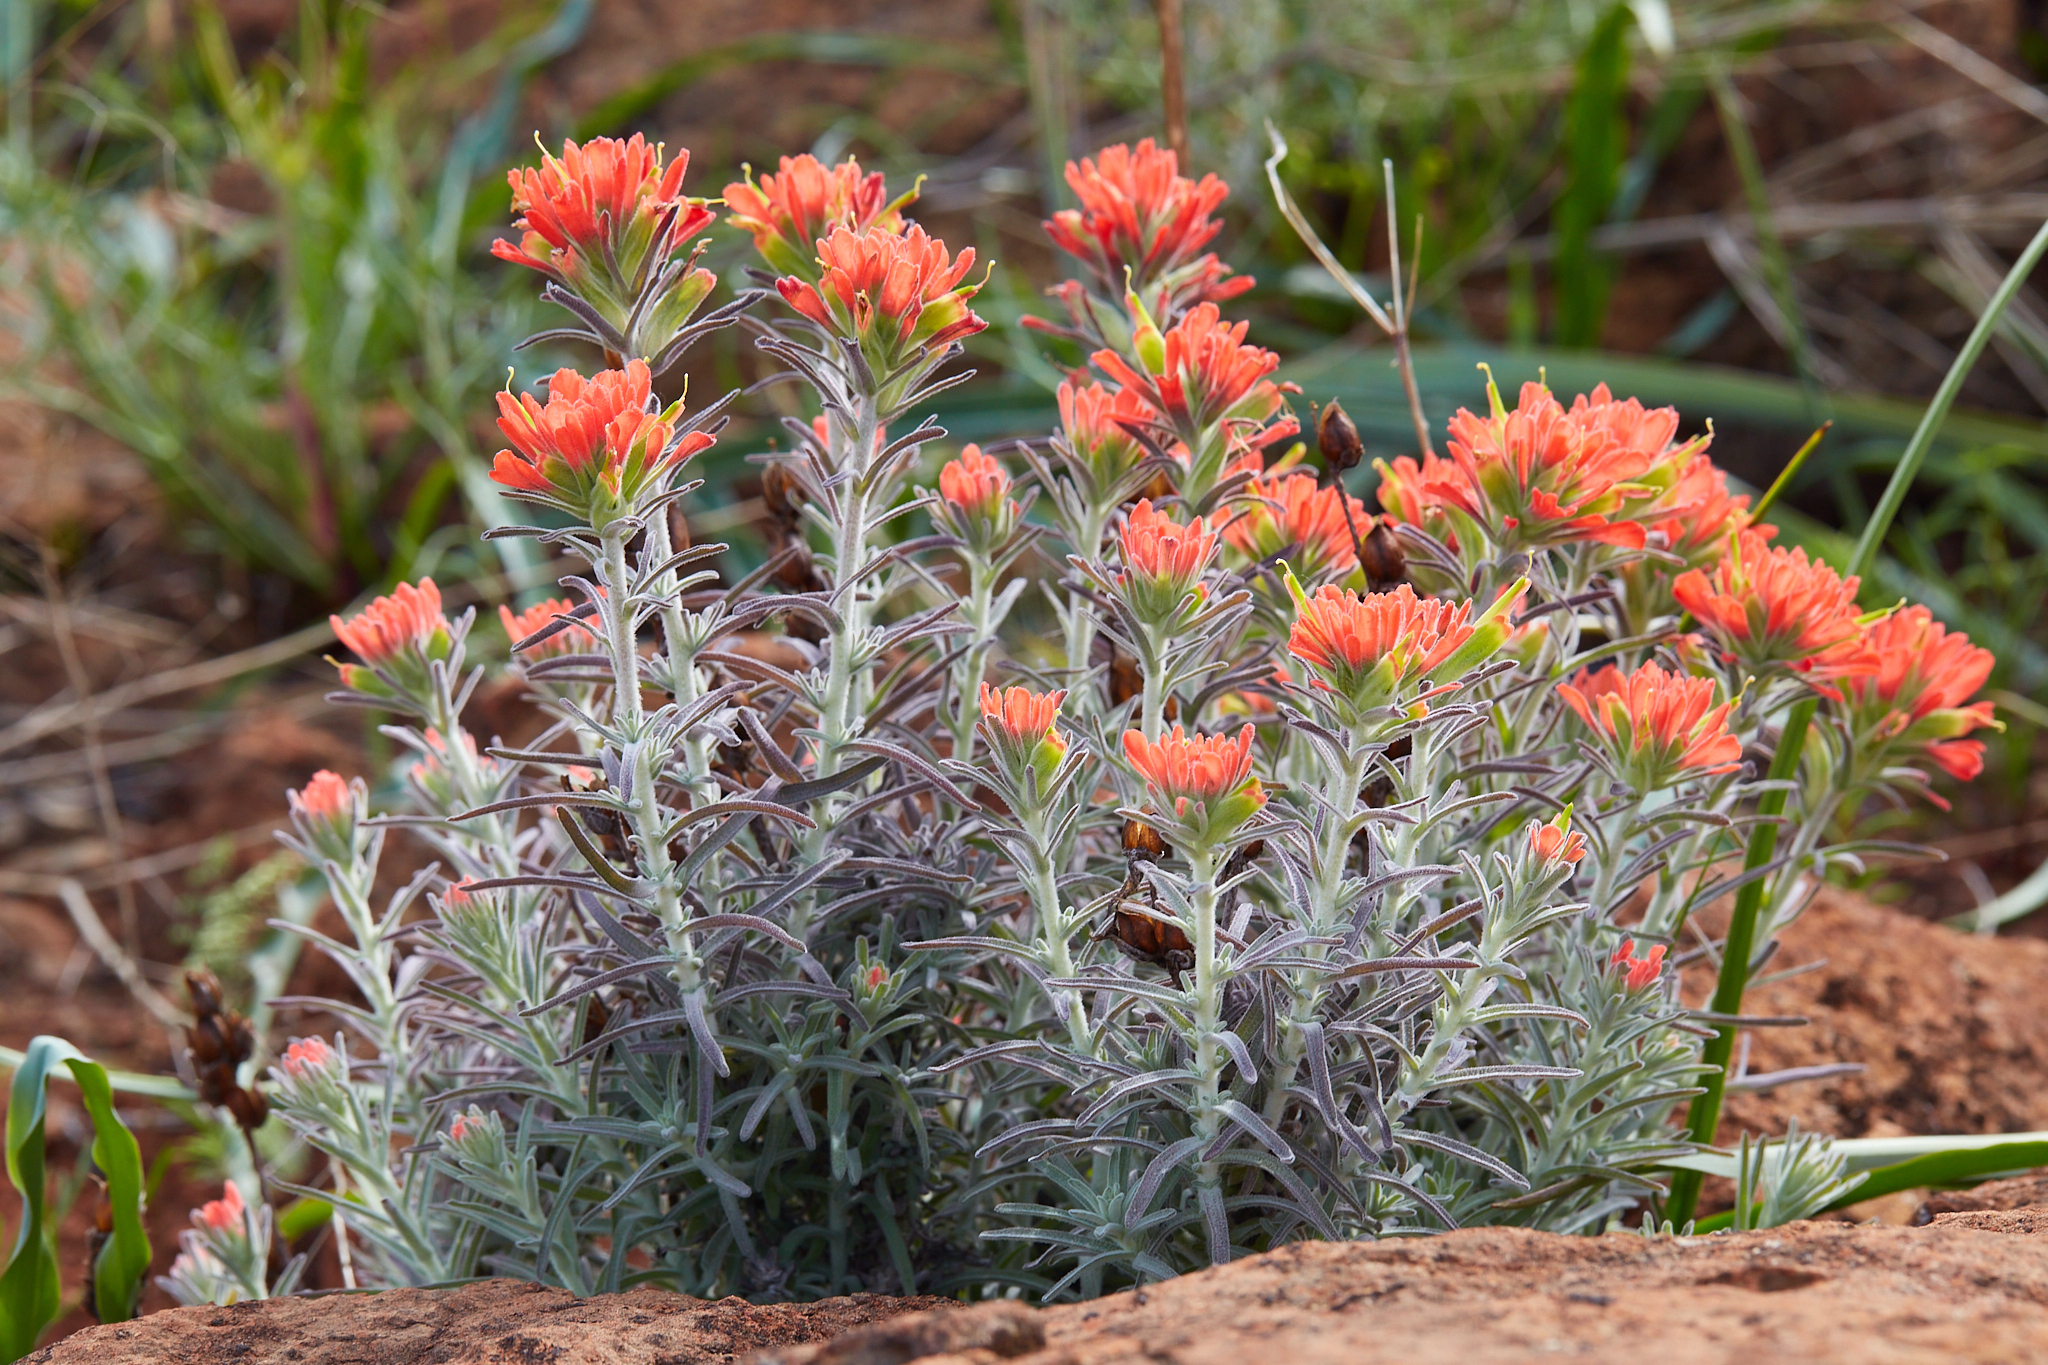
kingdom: Plantae
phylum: Tracheophyta
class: Magnoliopsida
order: Lamiales
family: Orobanchaceae
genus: Castilleja
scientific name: Castilleja foliolosa
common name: Woolly indian paintbrush
